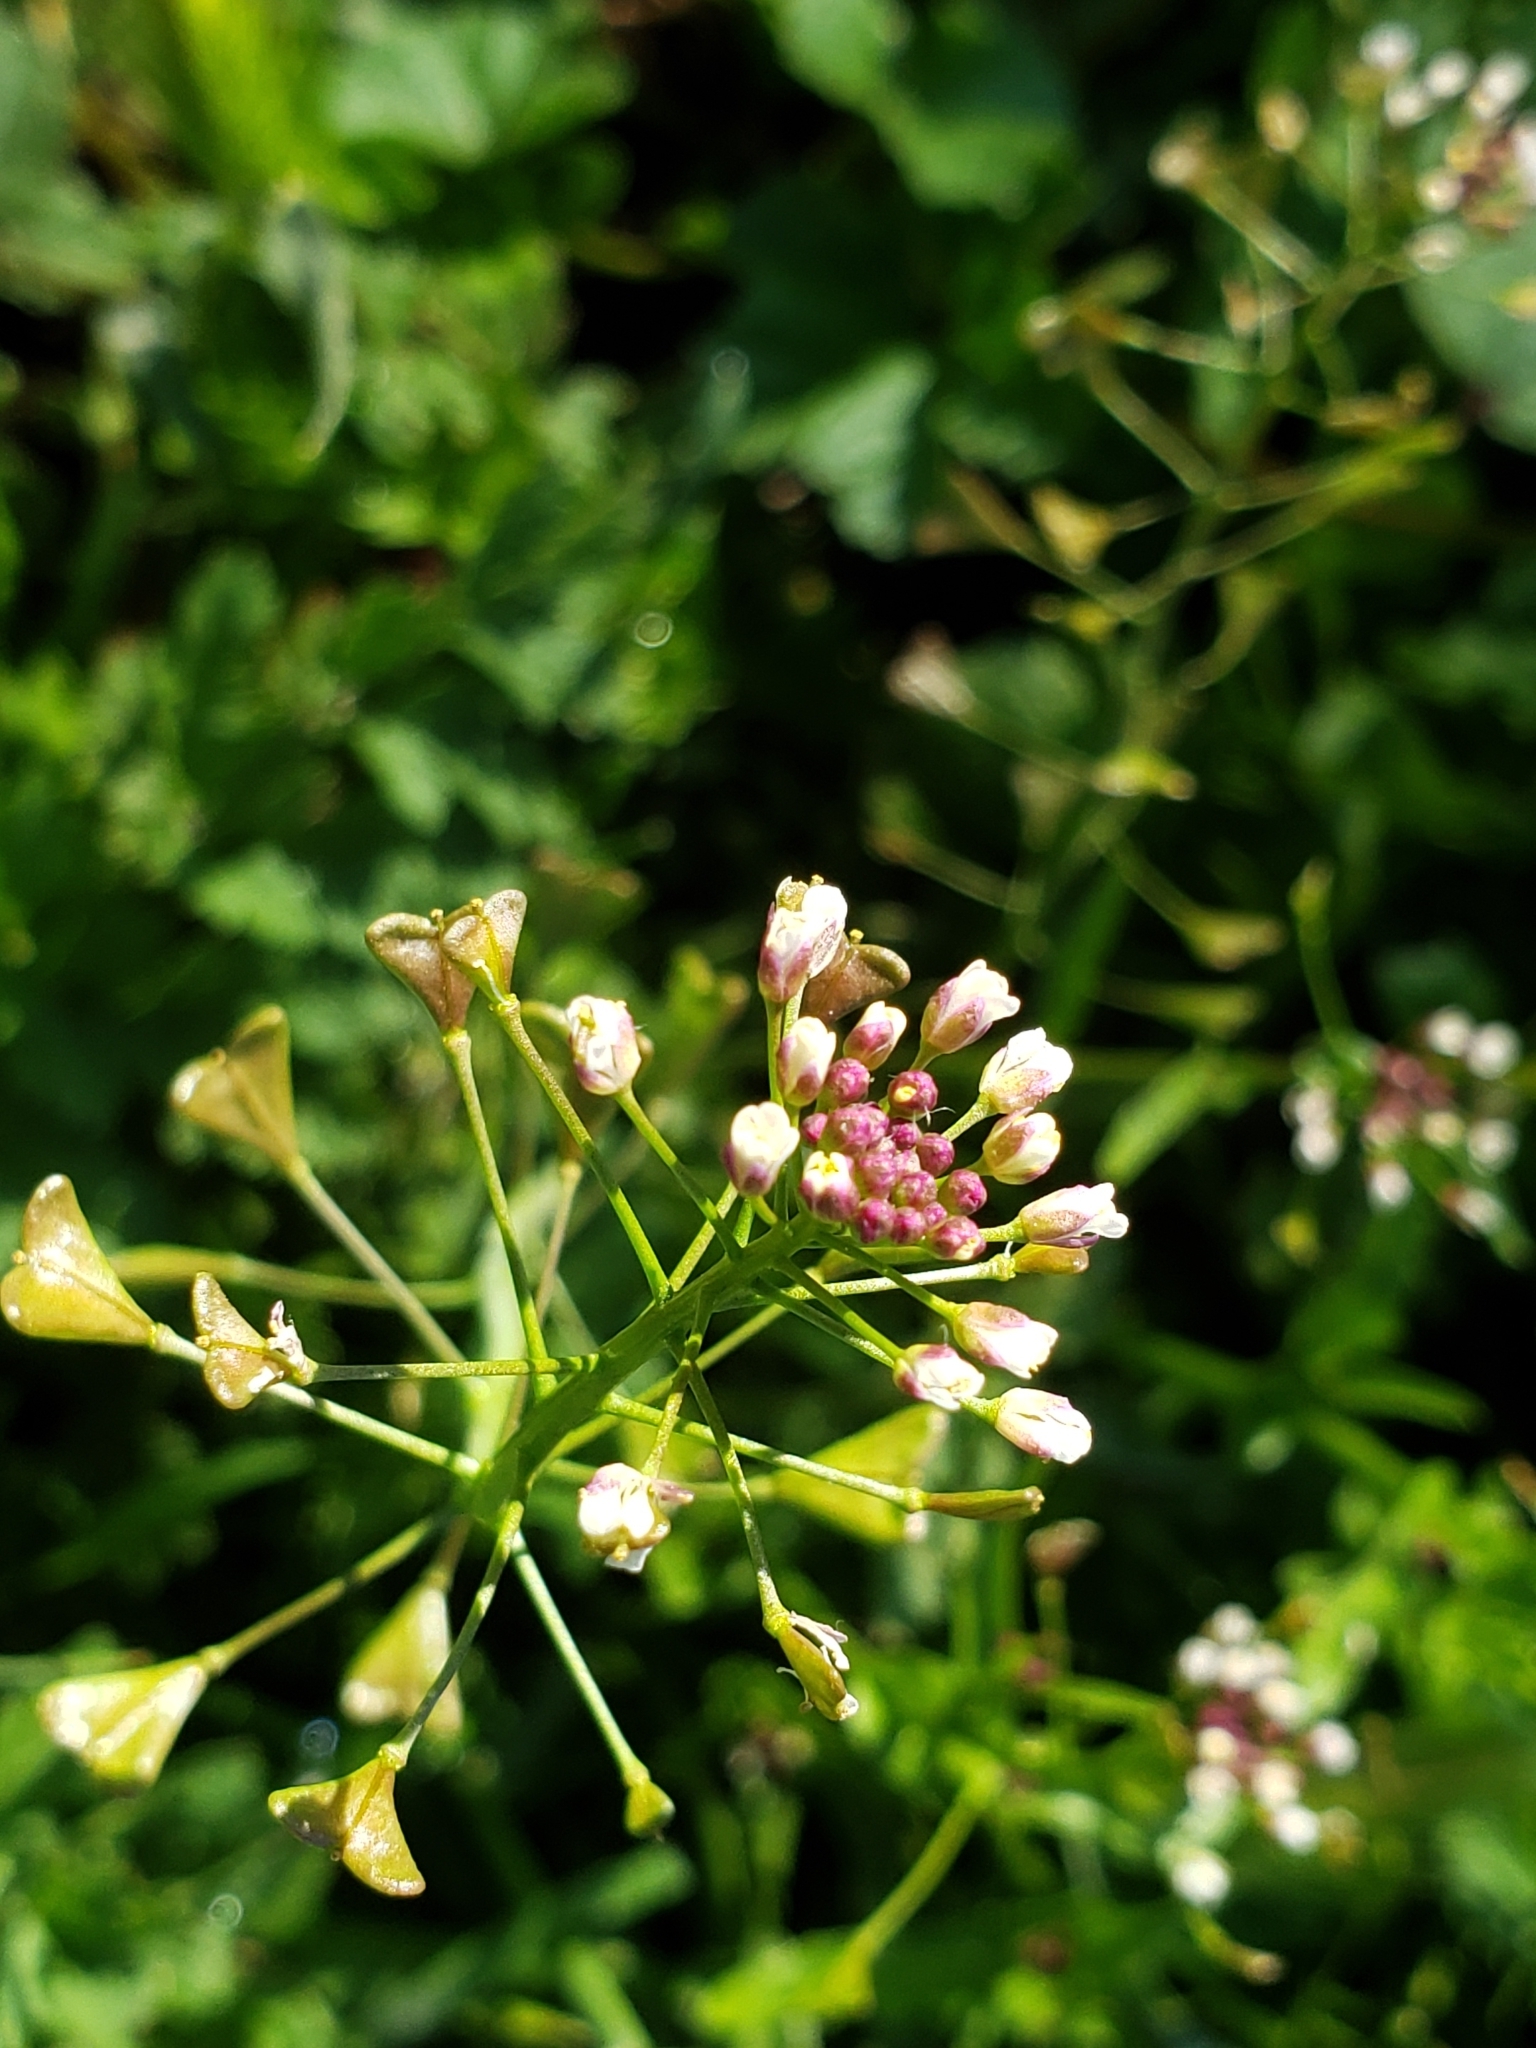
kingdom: Plantae
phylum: Tracheophyta
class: Magnoliopsida
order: Brassicales
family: Brassicaceae
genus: Capsella
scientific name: Capsella bursa-pastoris
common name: Shepherd's purse
